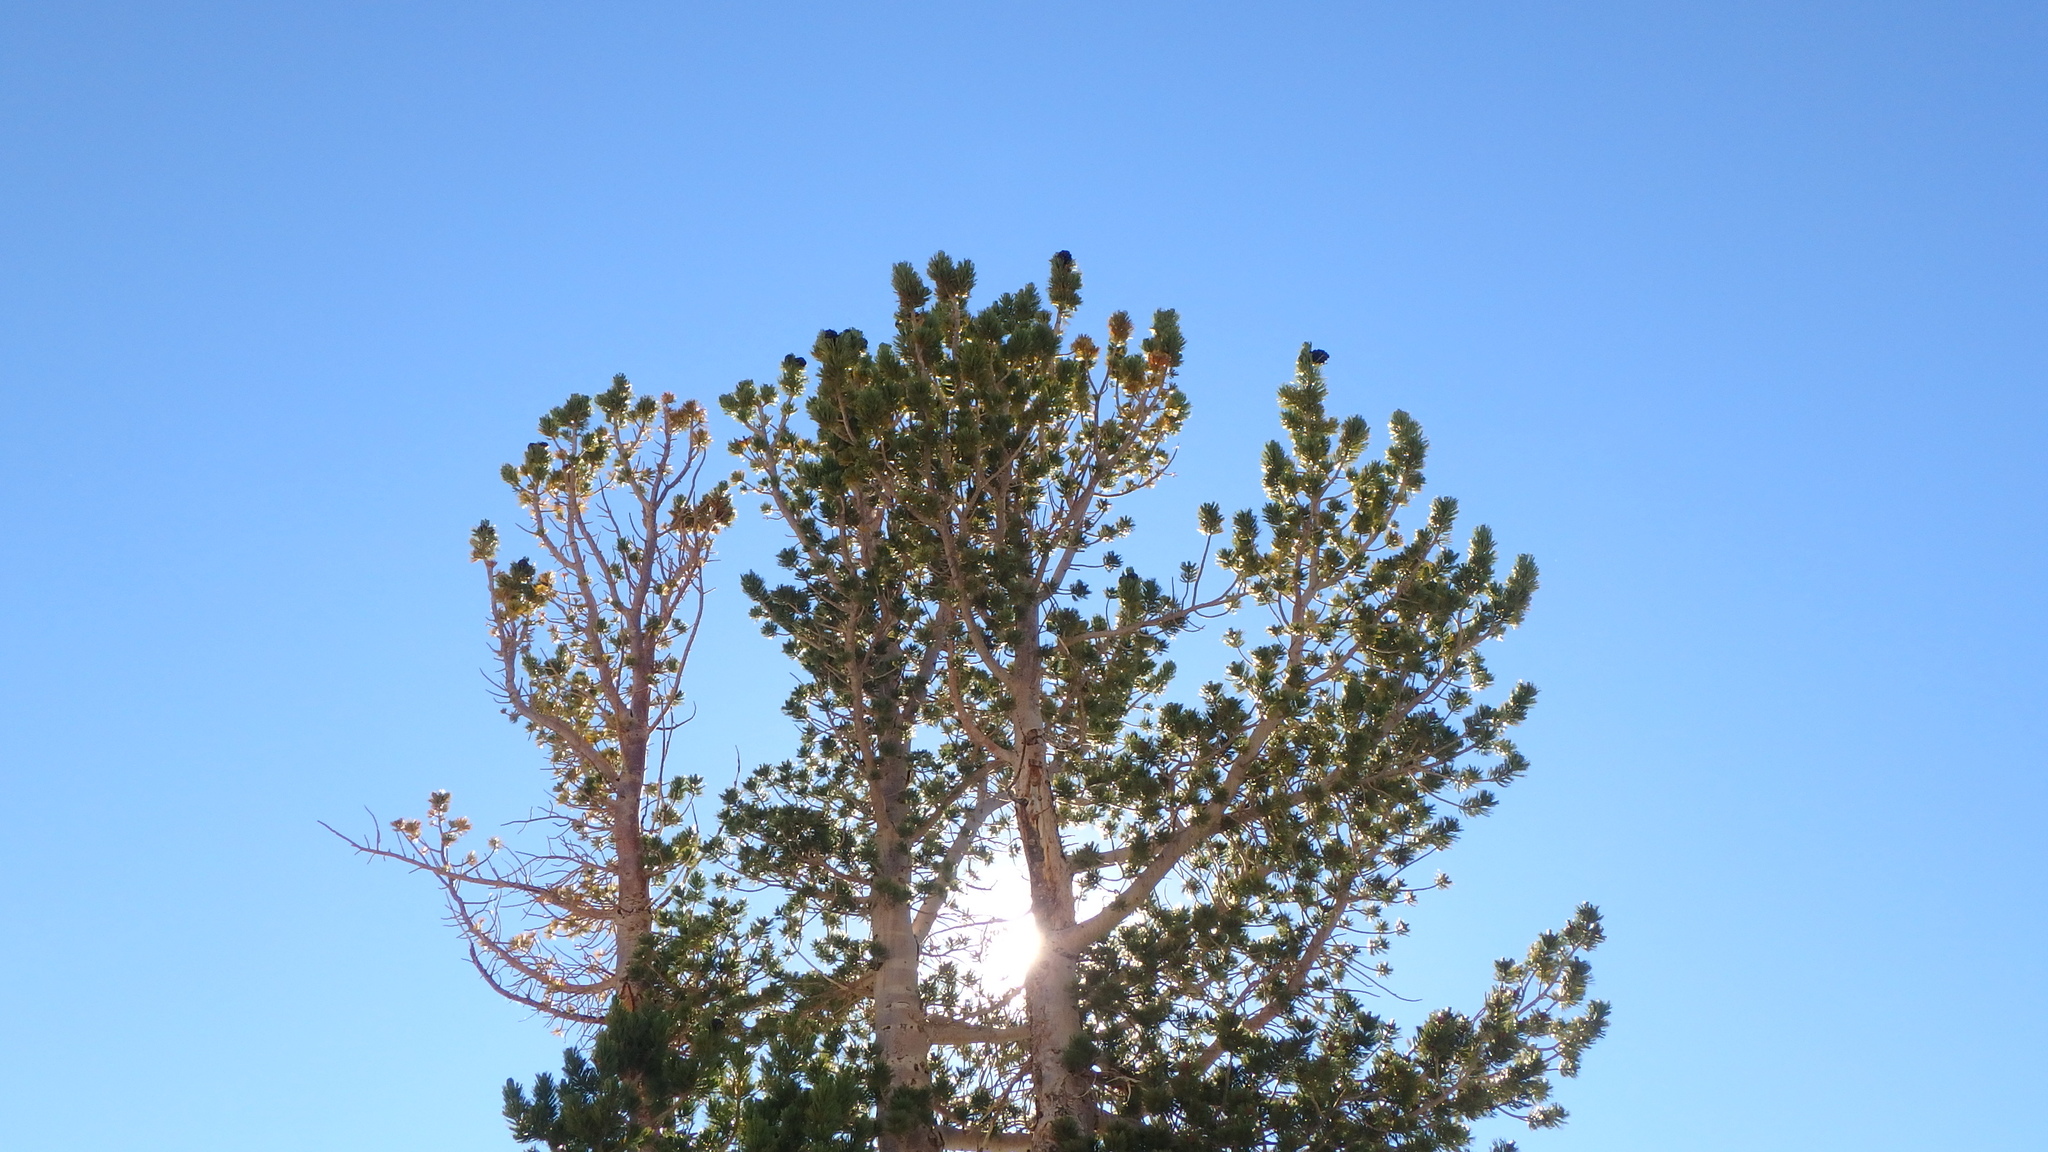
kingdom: Plantae
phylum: Tracheophyta
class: Pinopsida
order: Pinales
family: Pinaceae
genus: Pinus
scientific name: Pinus albicaulis
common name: Whitebark pine
